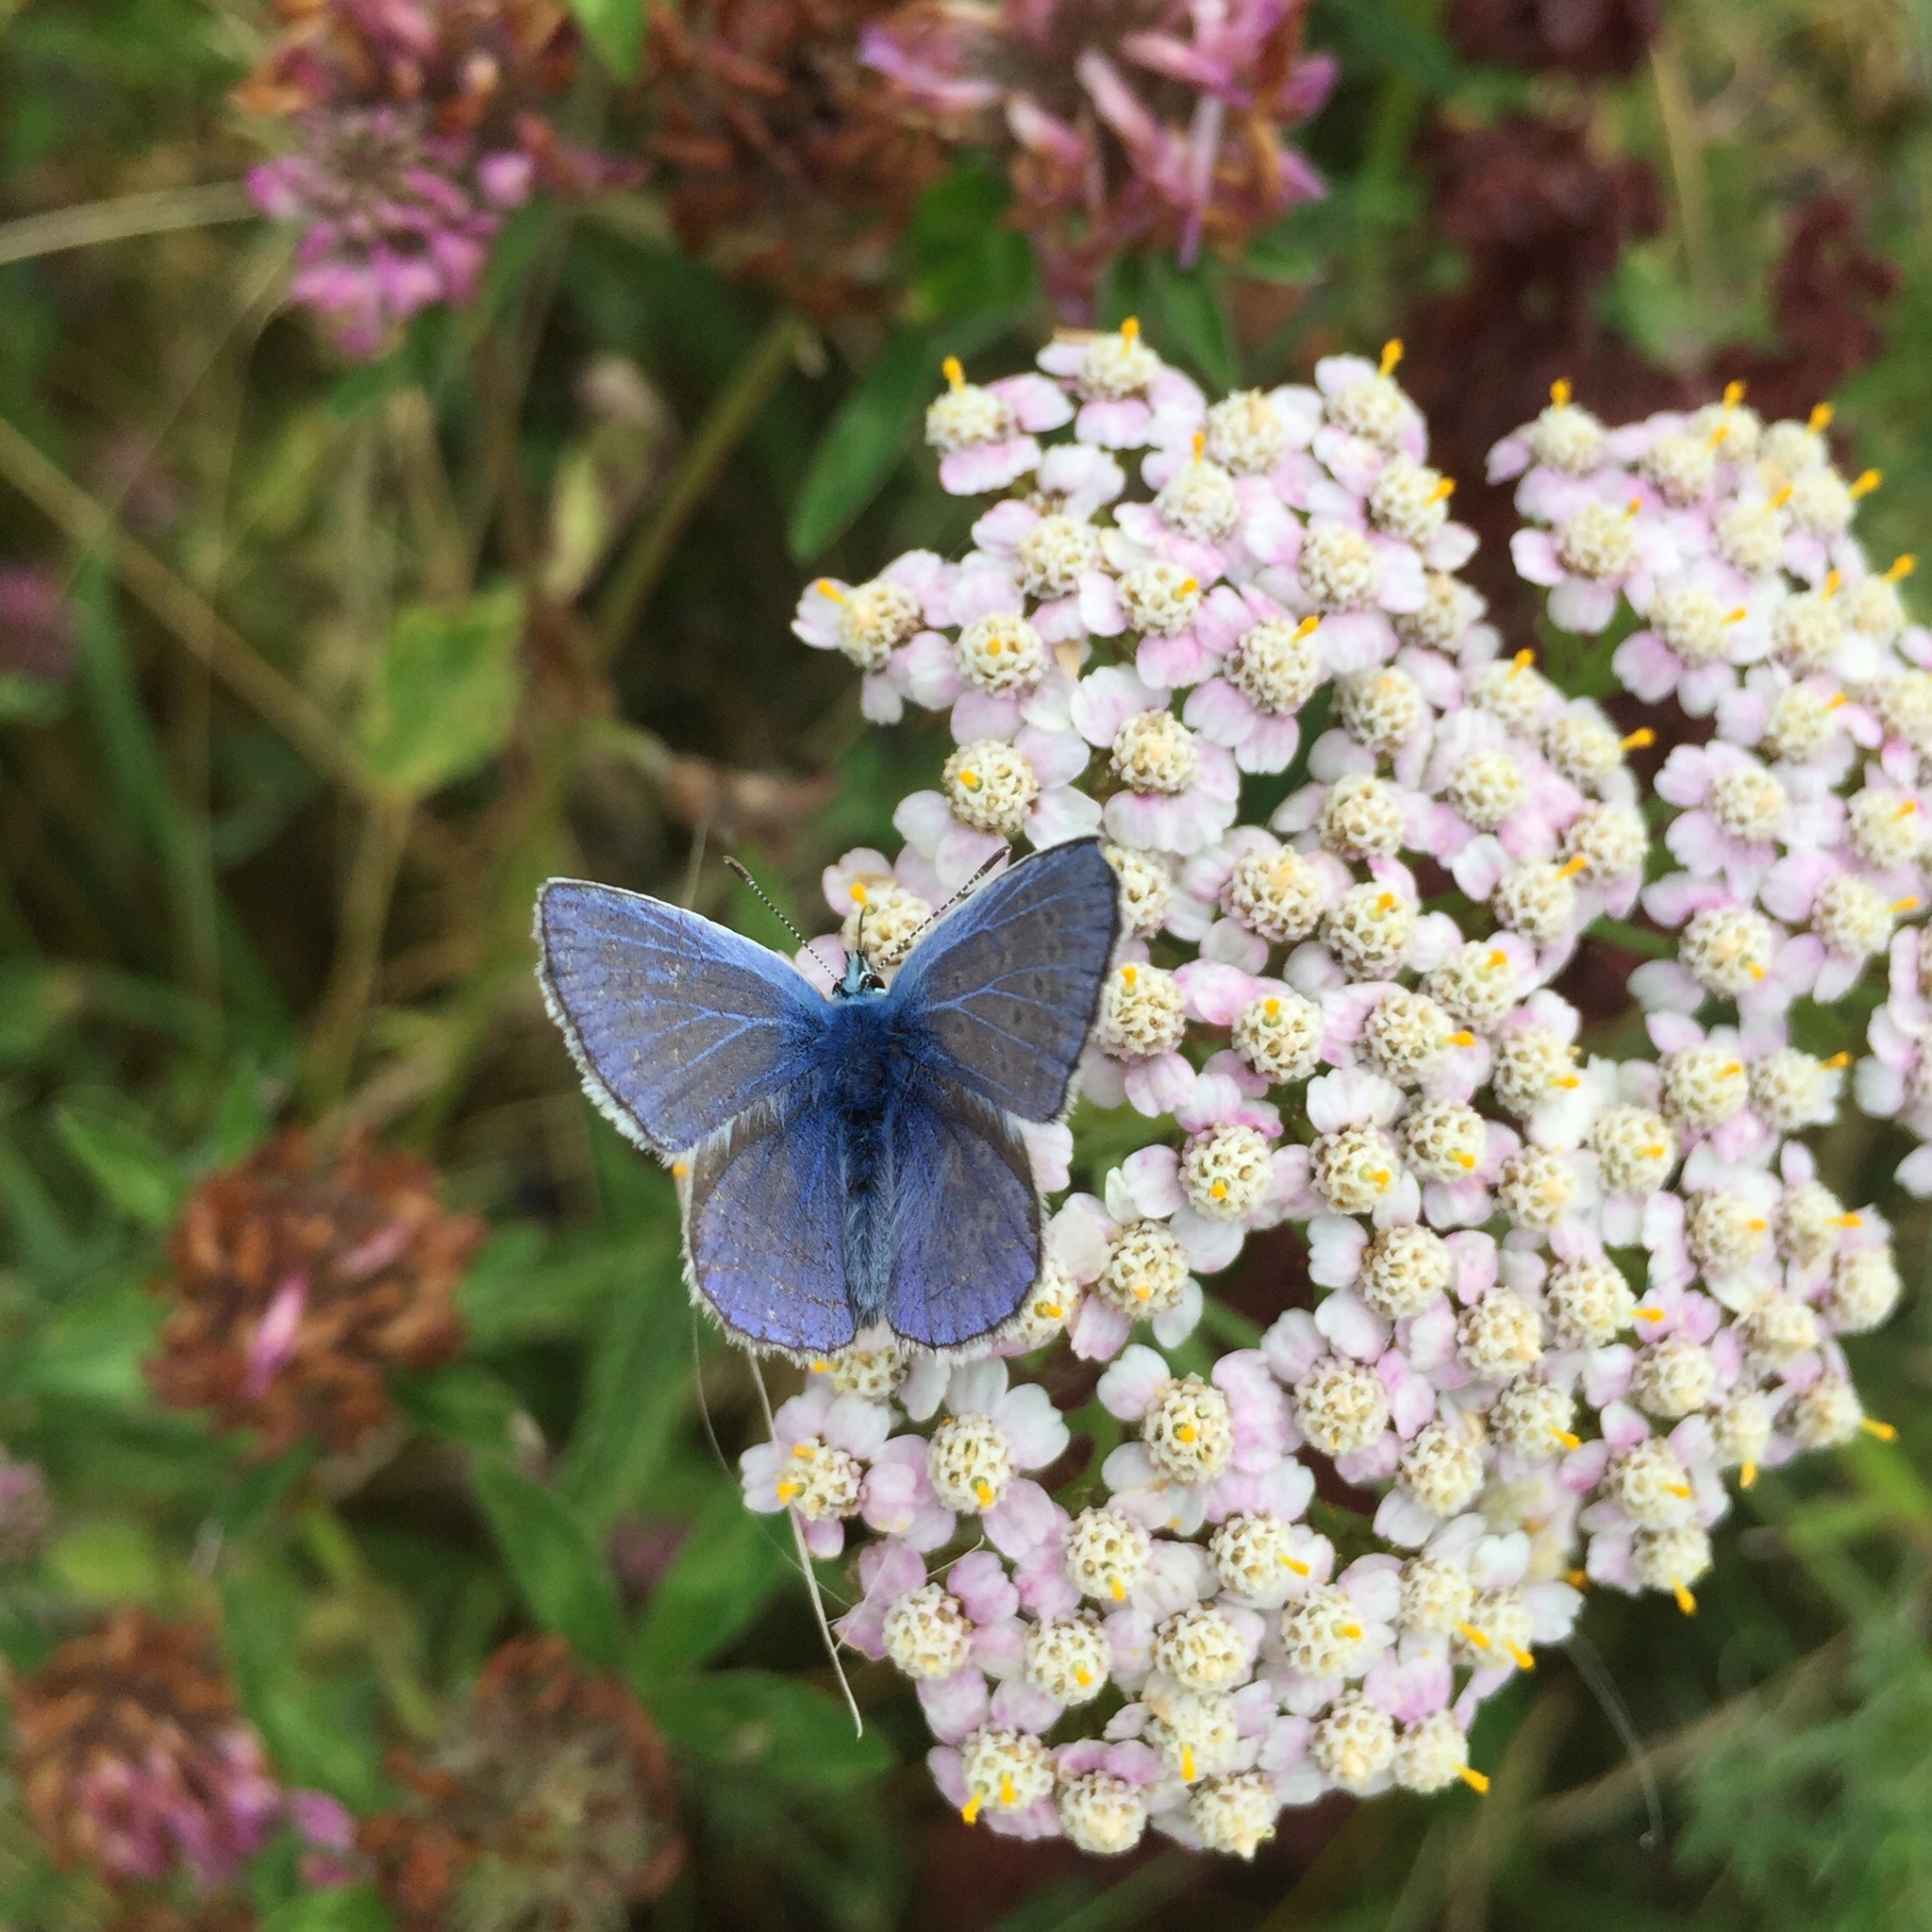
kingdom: Animalia
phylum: Arthropoda
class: Insecta
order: Lepidoptera
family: Lycaenidae
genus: Polyommatus
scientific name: Polyommatus icarus
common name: Common blue
